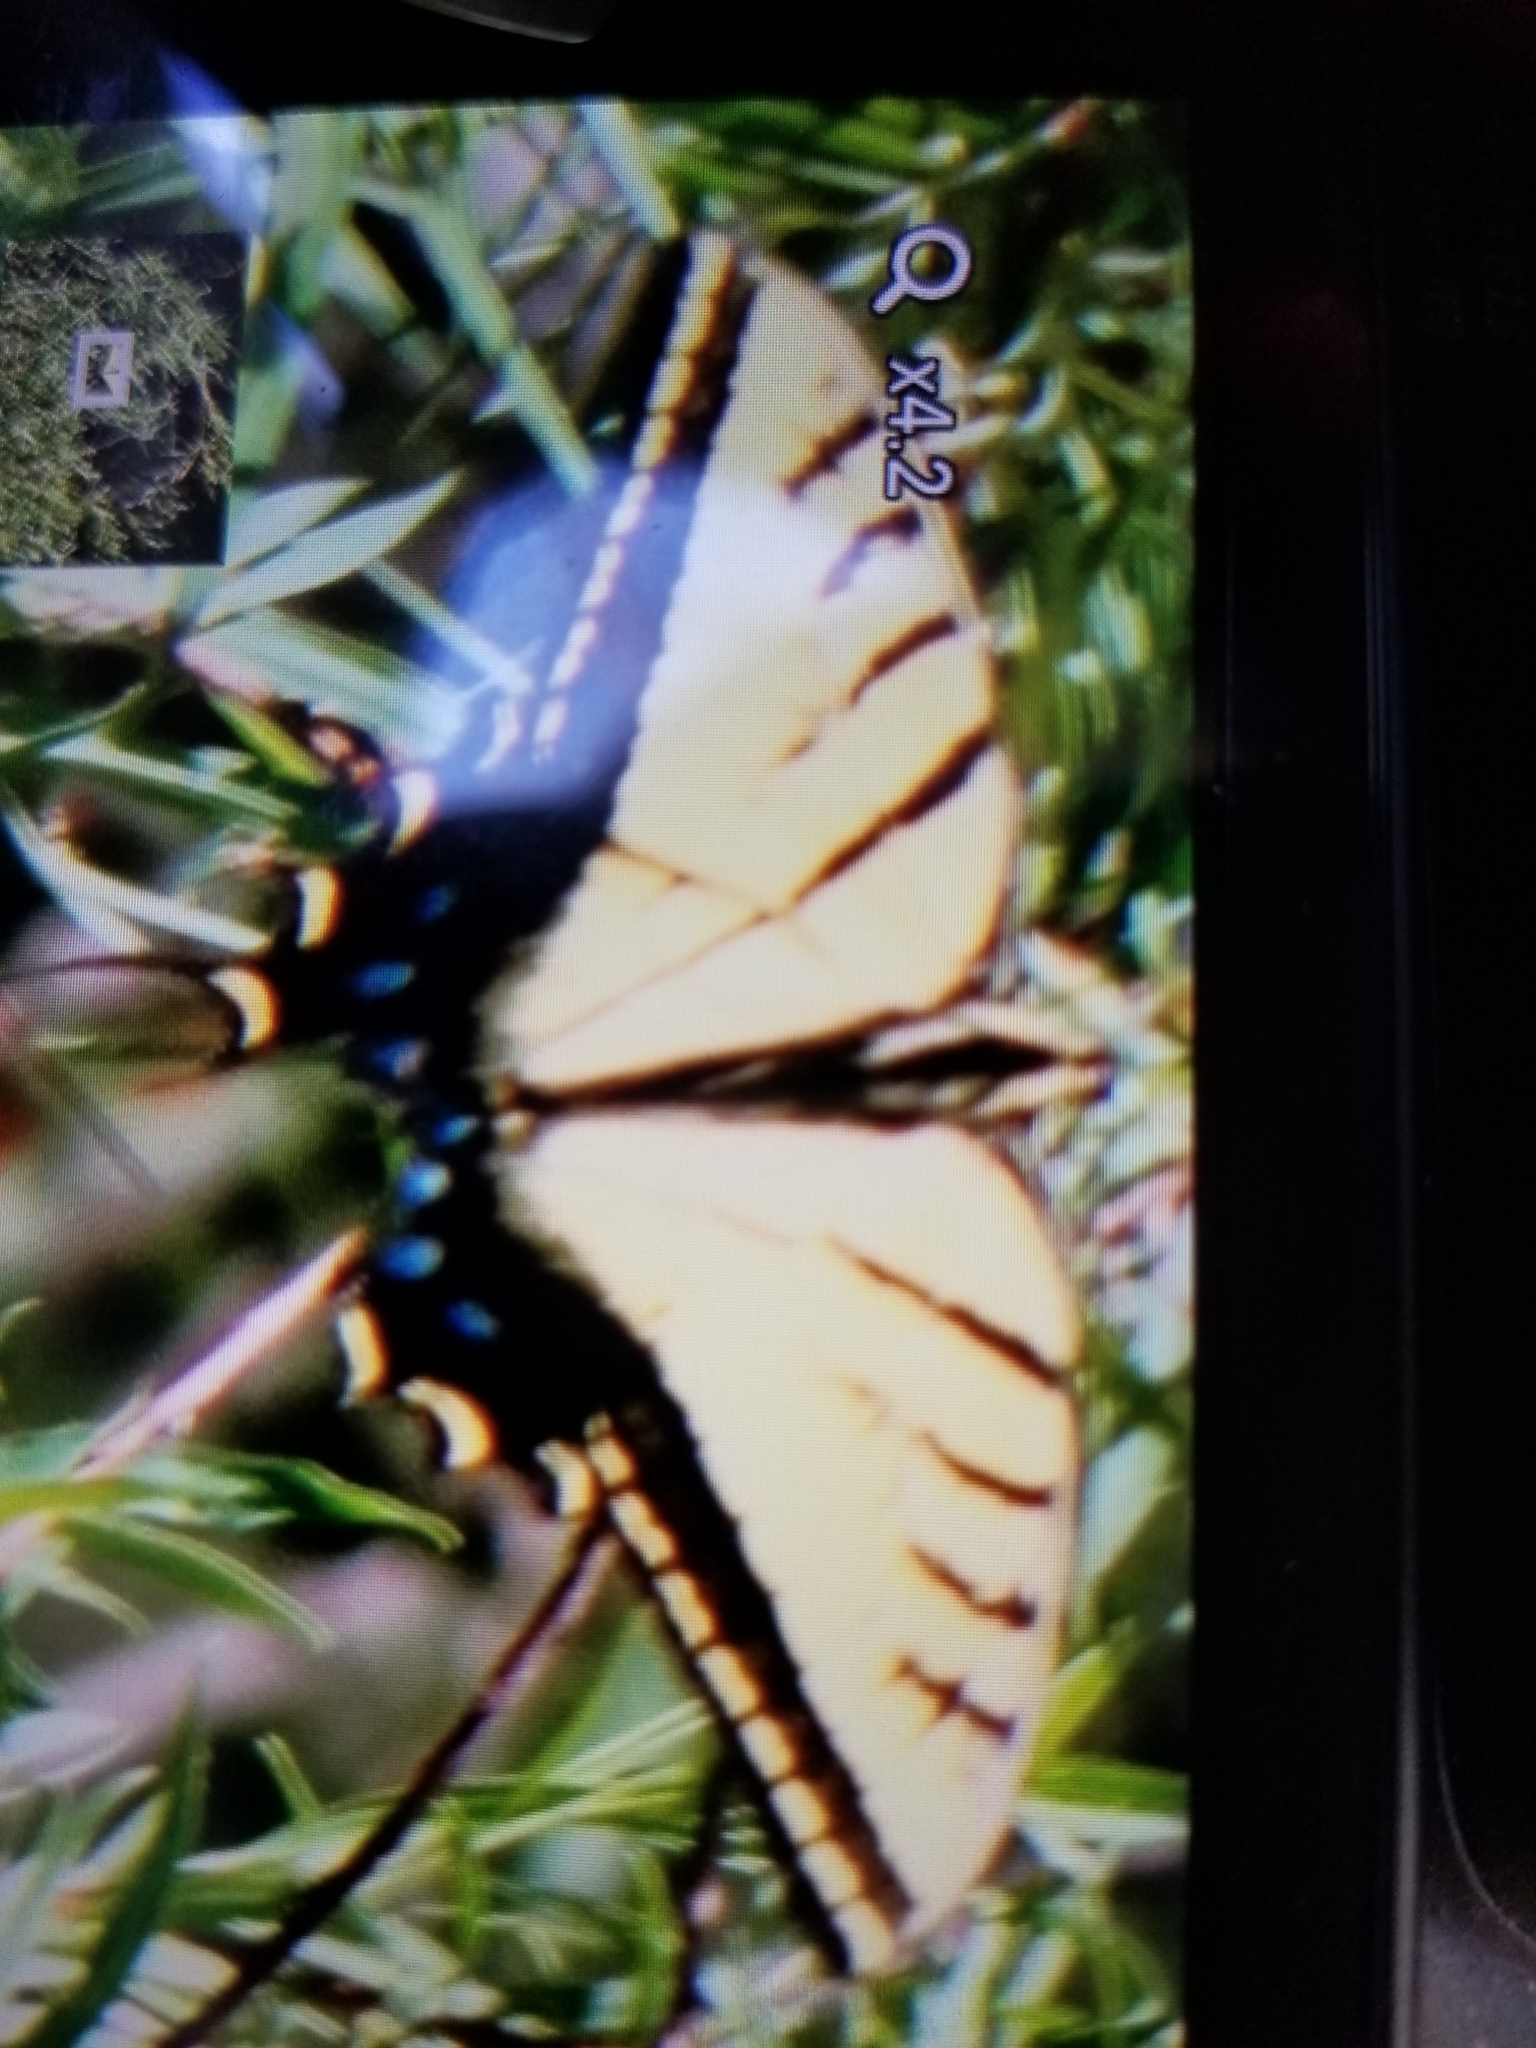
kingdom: Animalia
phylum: Arthropoda
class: Insecta
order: Lepidoptera
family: Papilionidae
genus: Papilio
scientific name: Papilio multicaudata
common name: Two-tailed tiger swallowtail
